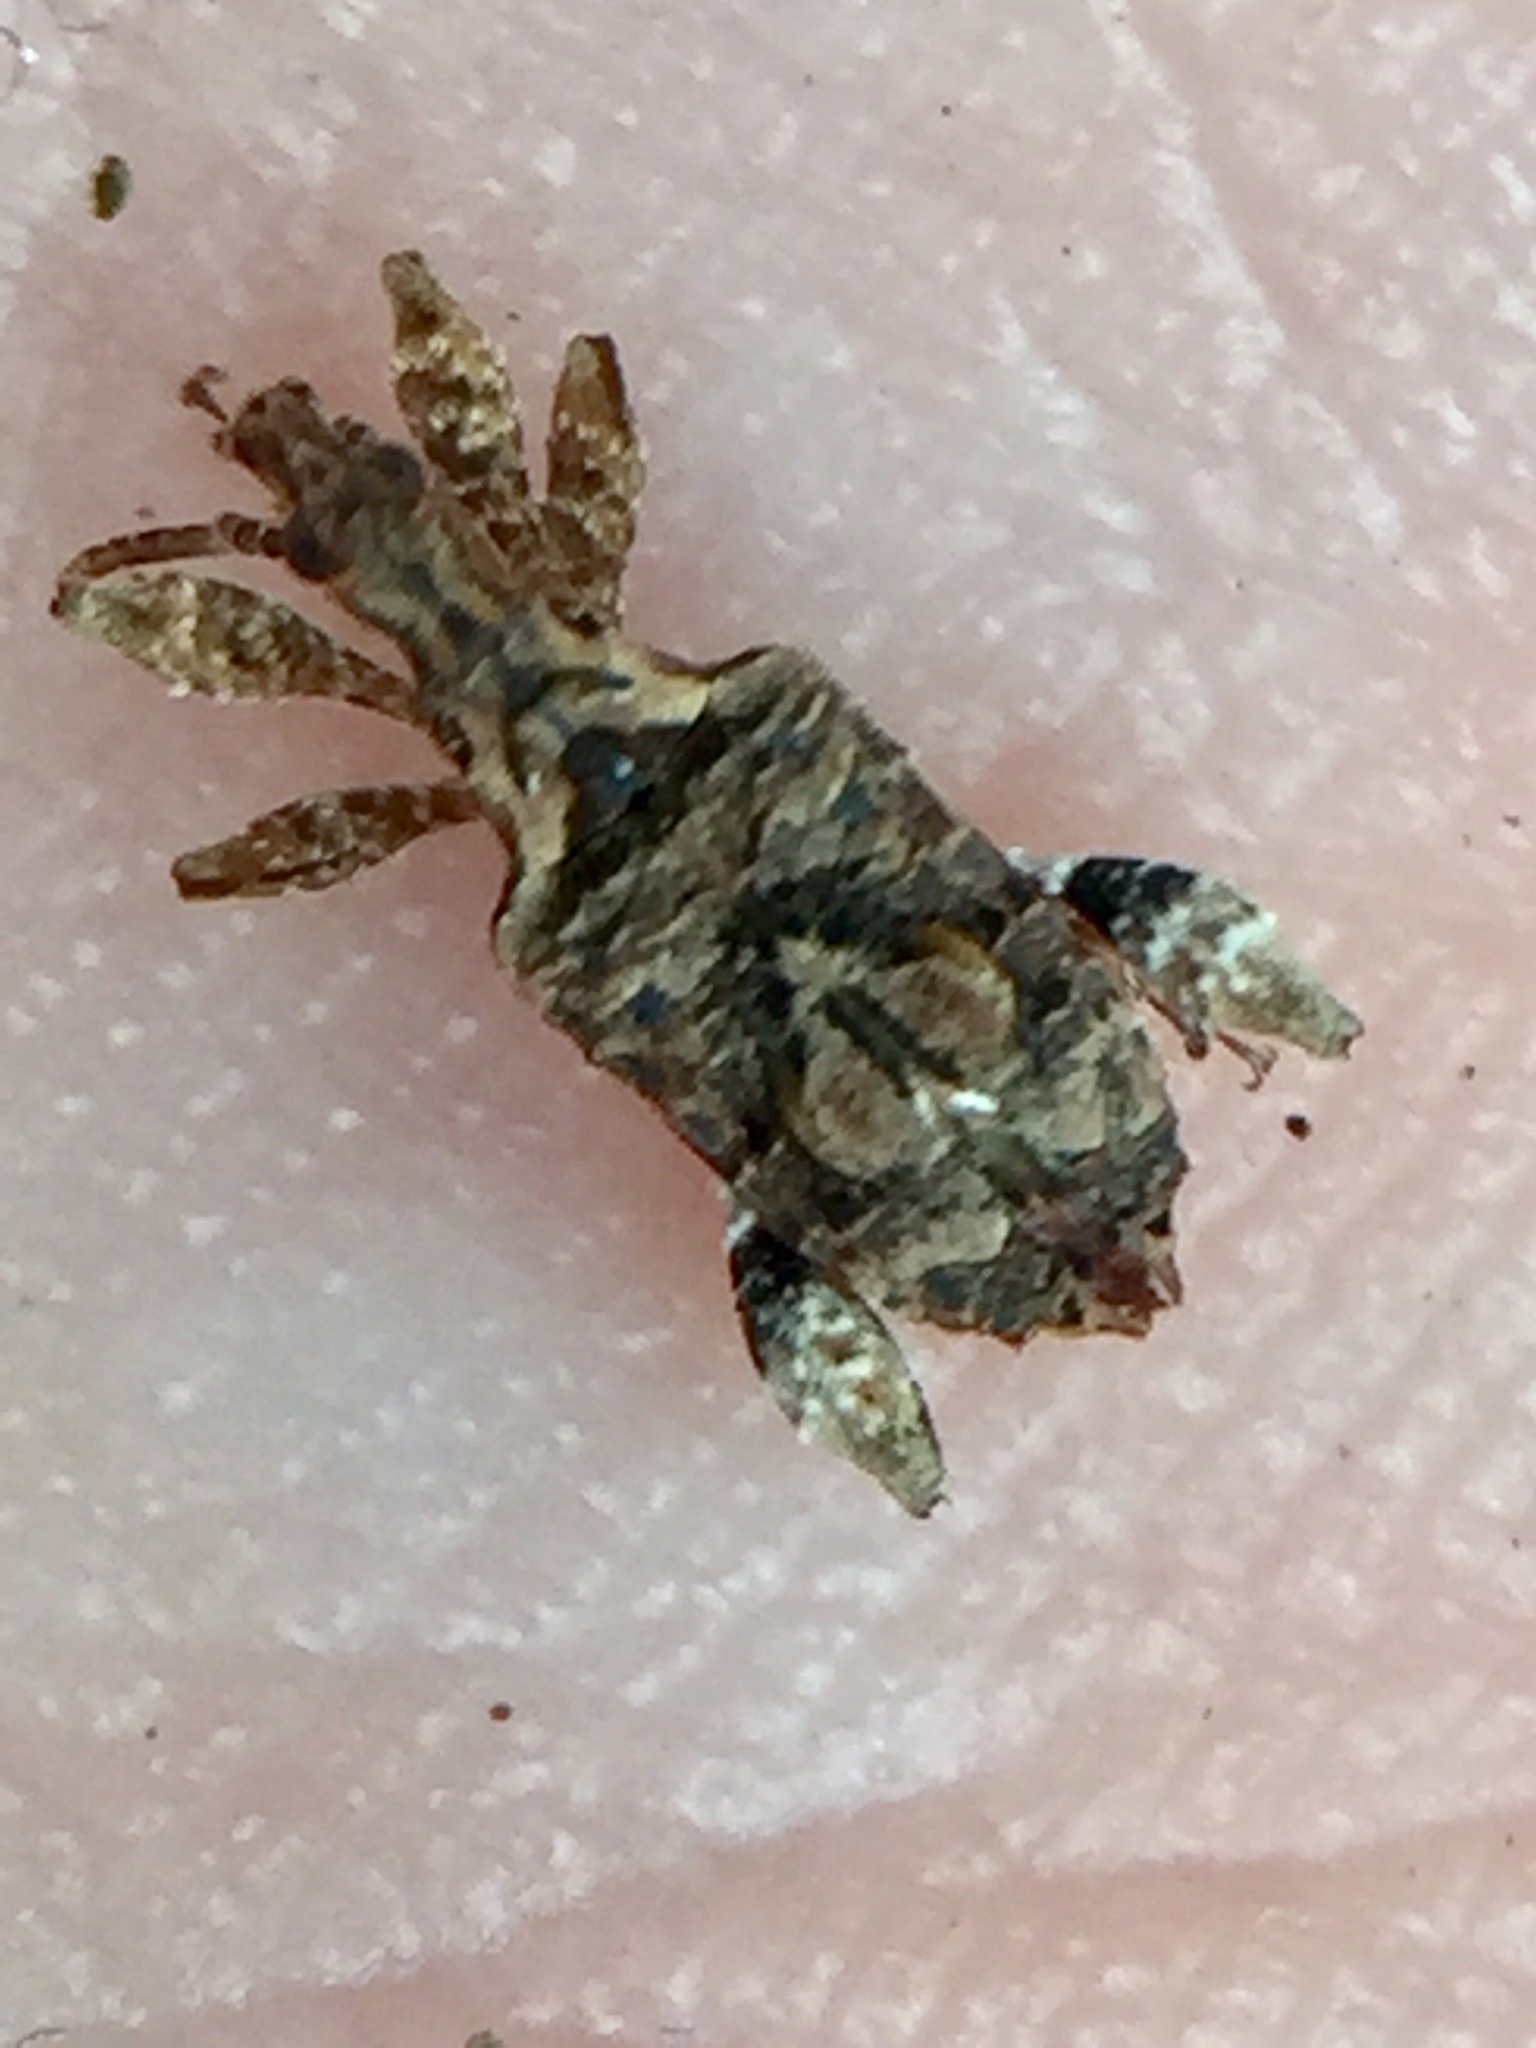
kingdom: Animalia
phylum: Arthropoda
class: Insecta
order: Coleoptera
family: Curculionidae
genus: Stephanorhynchus
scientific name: Stephanorhynchus curvipes
